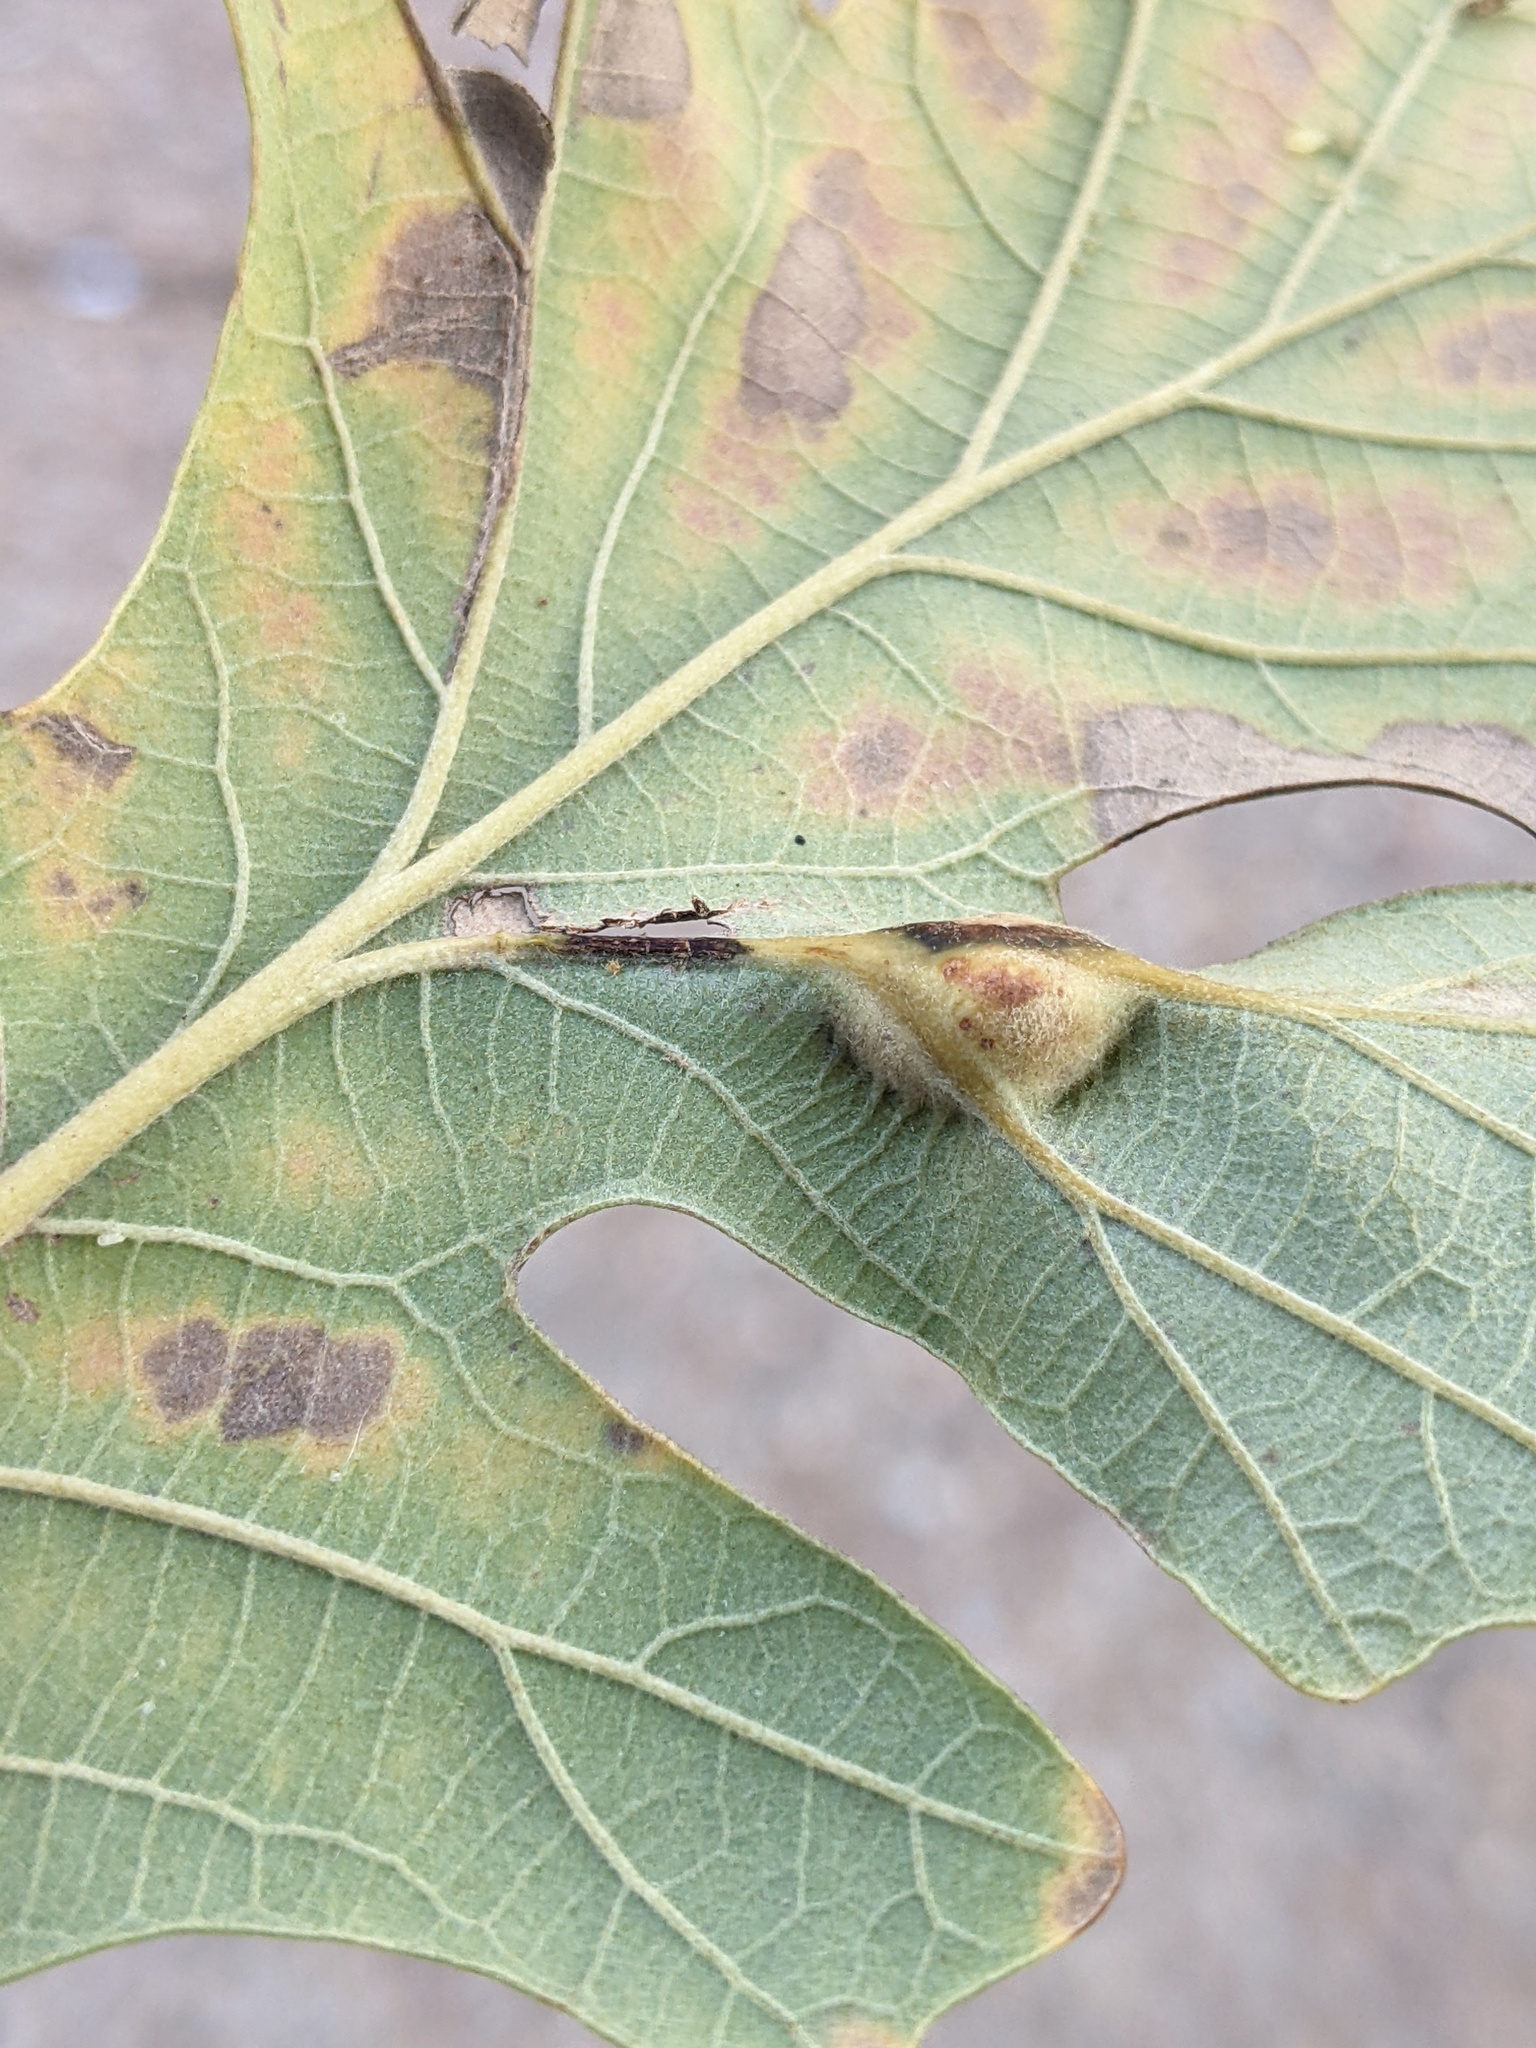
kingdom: Animalia
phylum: Arthropoda
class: Insecta
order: Hymenoptera
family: Cynipidae
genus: Bassettia
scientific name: Bassettia flavipes
